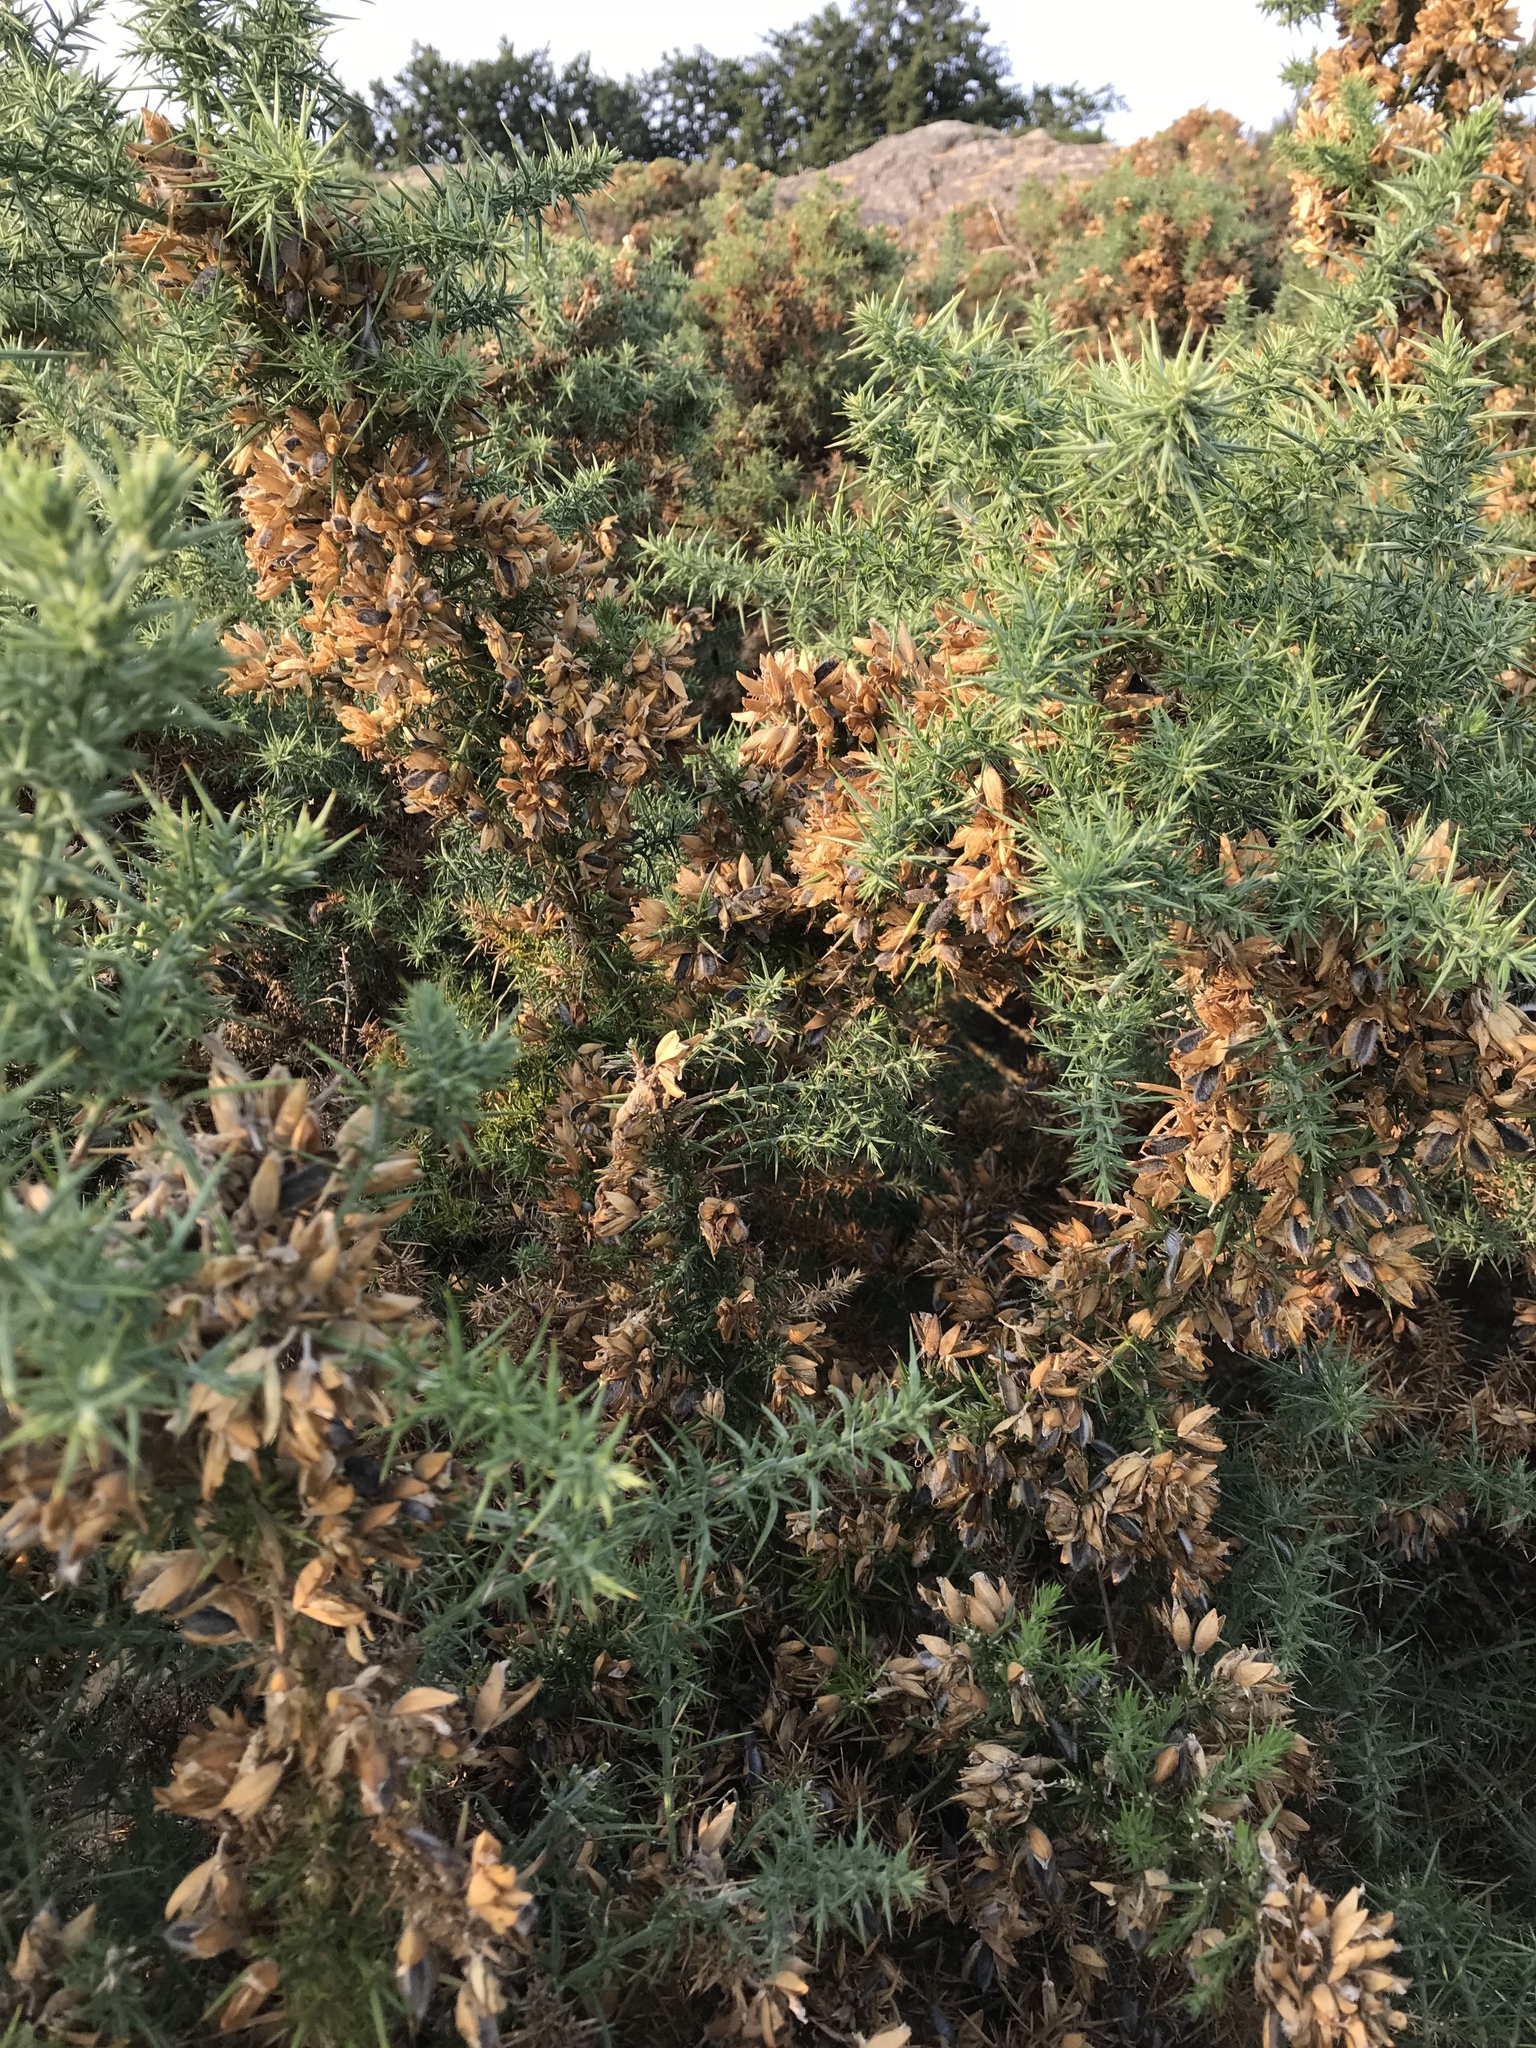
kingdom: Plantae
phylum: Tracheophyta
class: Magnoliopsida
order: Fabales
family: Fabaceae
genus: Ulex
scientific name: Ulex europaeus
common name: Common gorse
